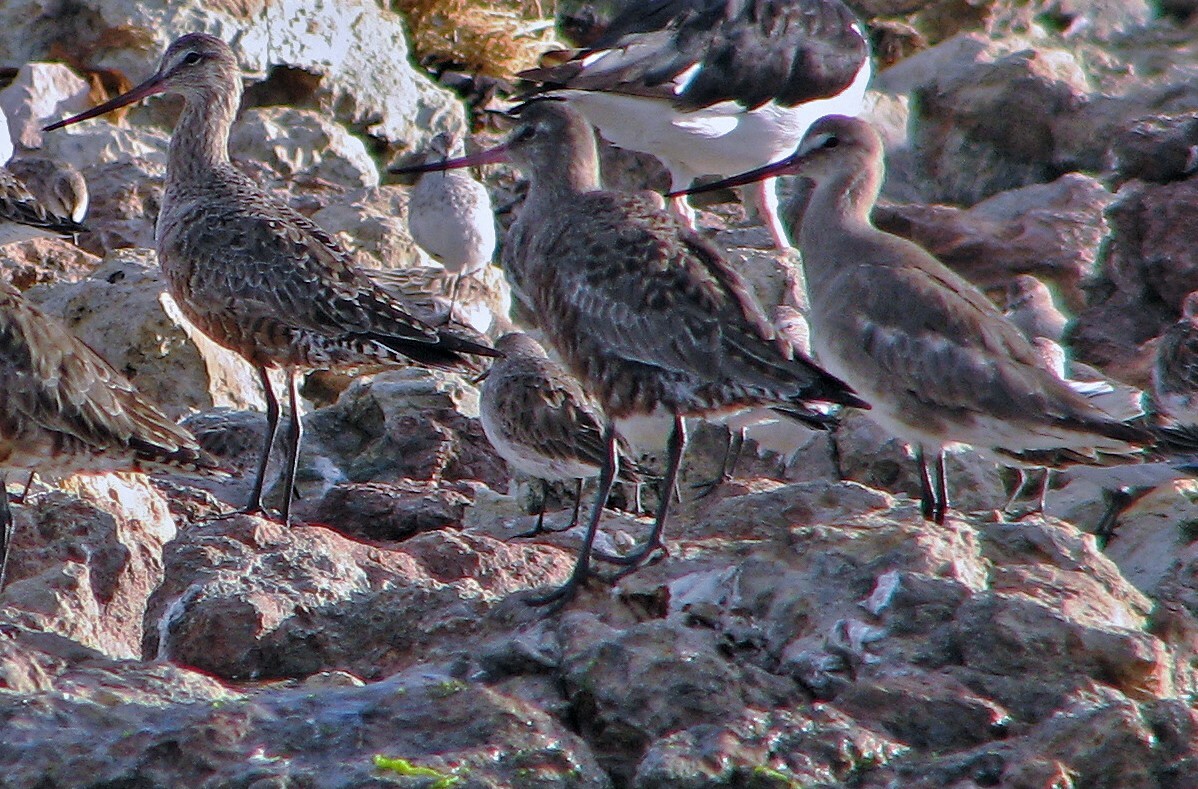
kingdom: Animalia
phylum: Chordata
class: Aves
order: Charadriiformes
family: Scolopacidae
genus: Limosa
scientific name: Limosa haemastica
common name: Hudsonian godwit
